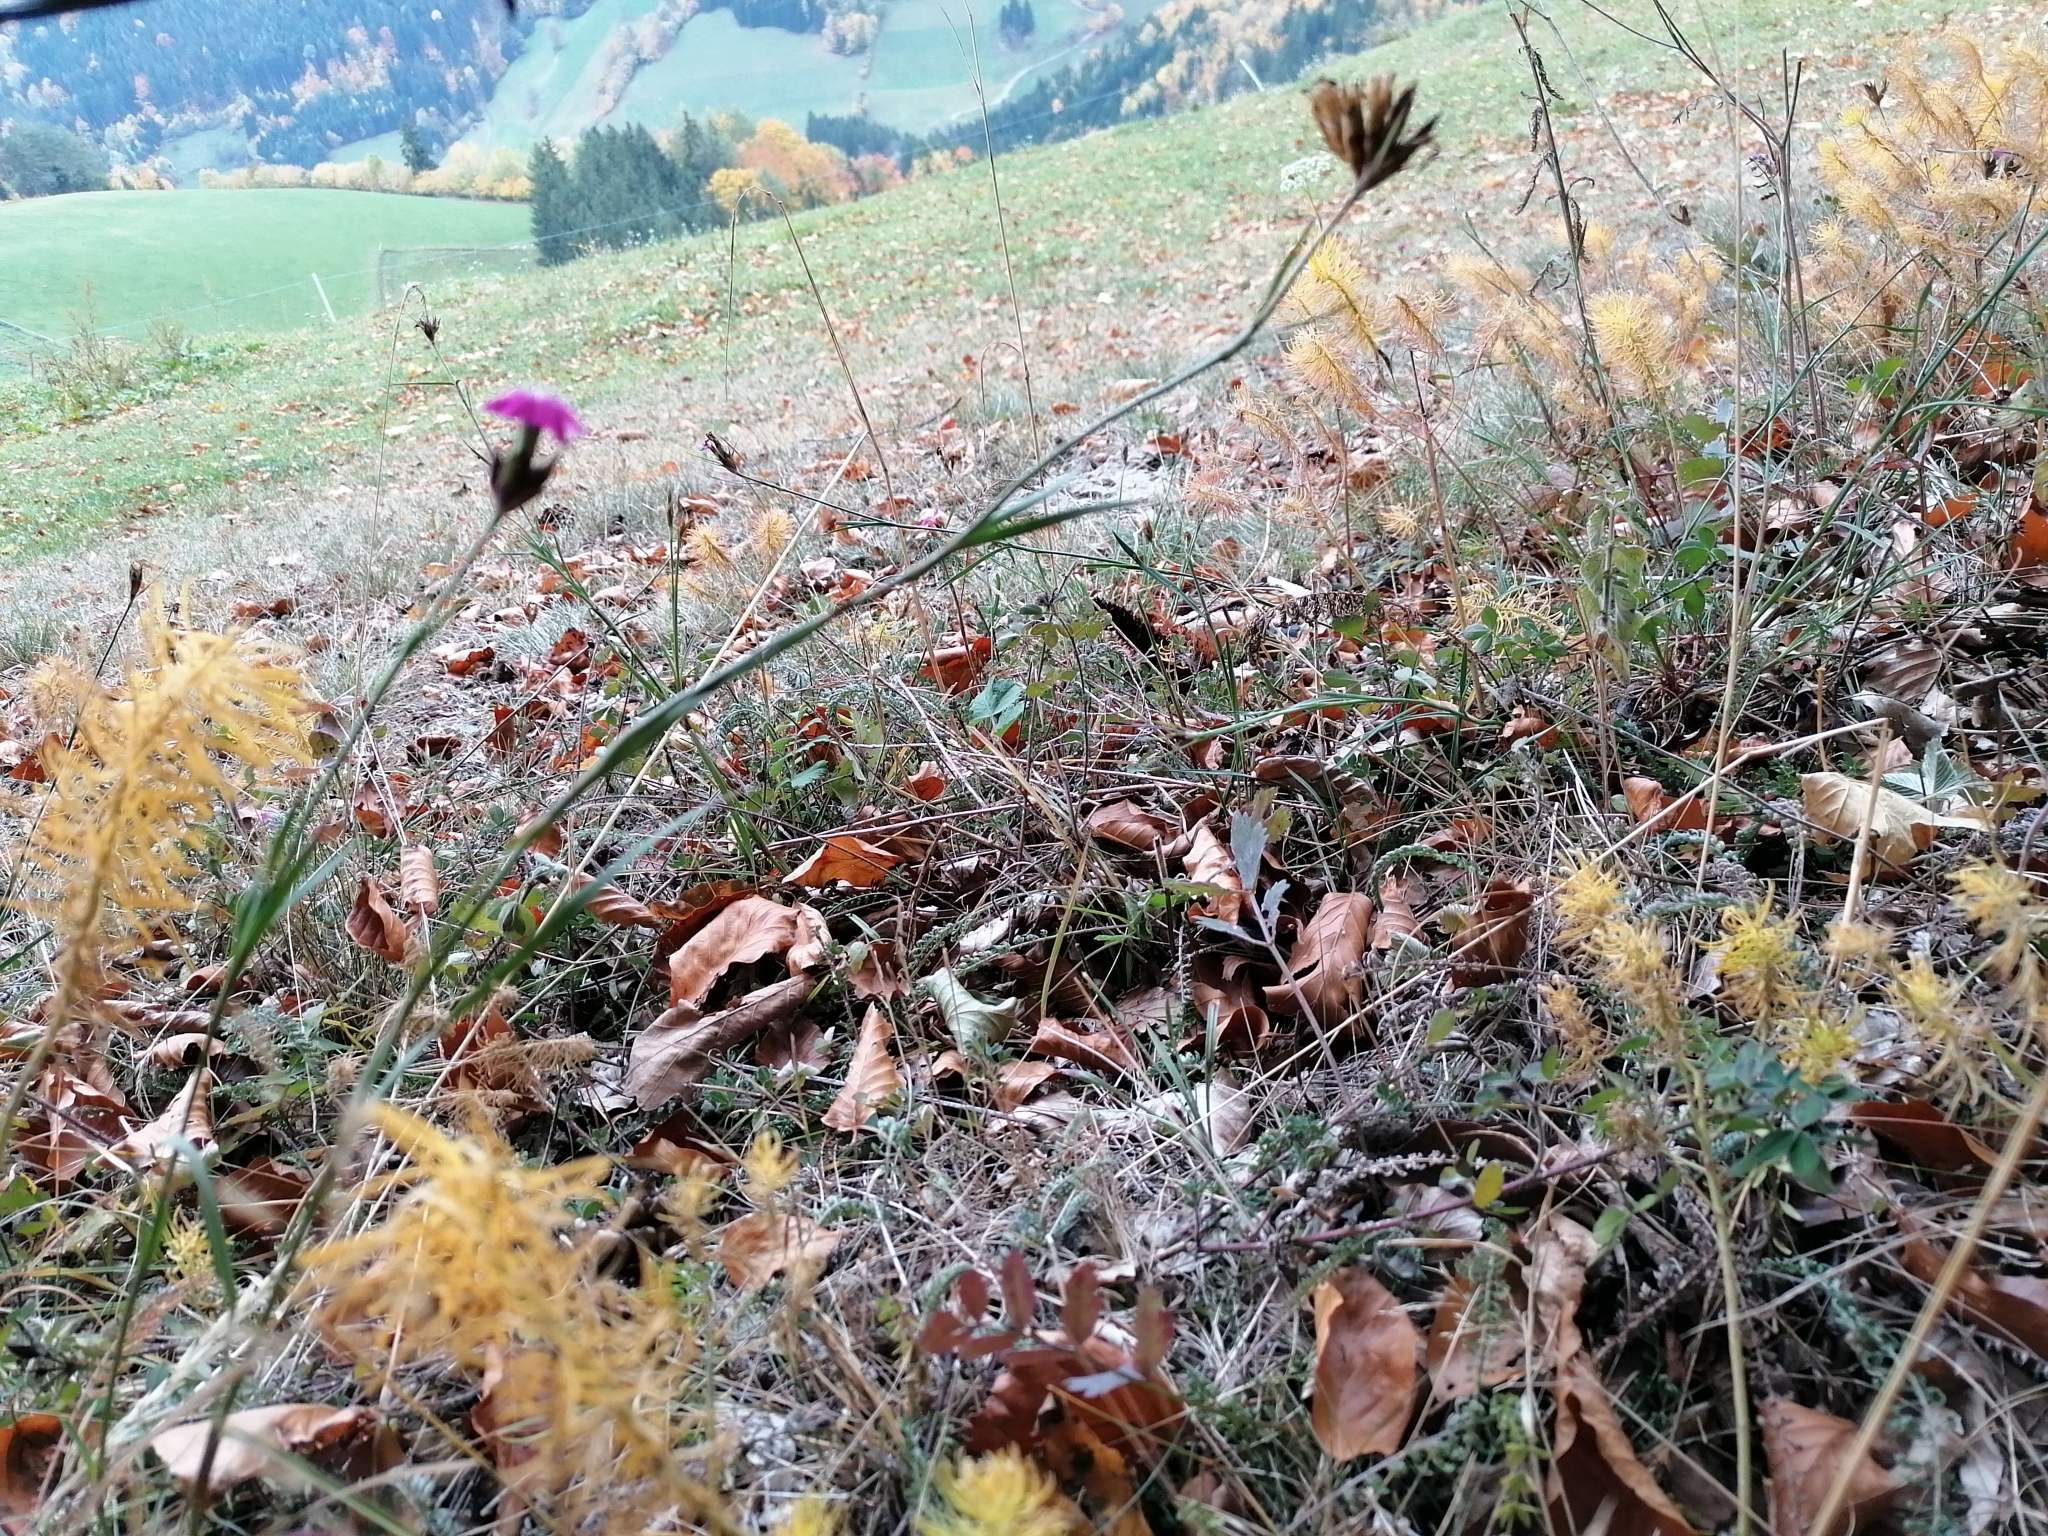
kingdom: Plantae
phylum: Tracheophyta
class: Magnoliopsida
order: Caryophyllales
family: Caryophyllaceae
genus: Dianthus
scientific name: Dianthus carthusianorum
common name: Carthusian pink
